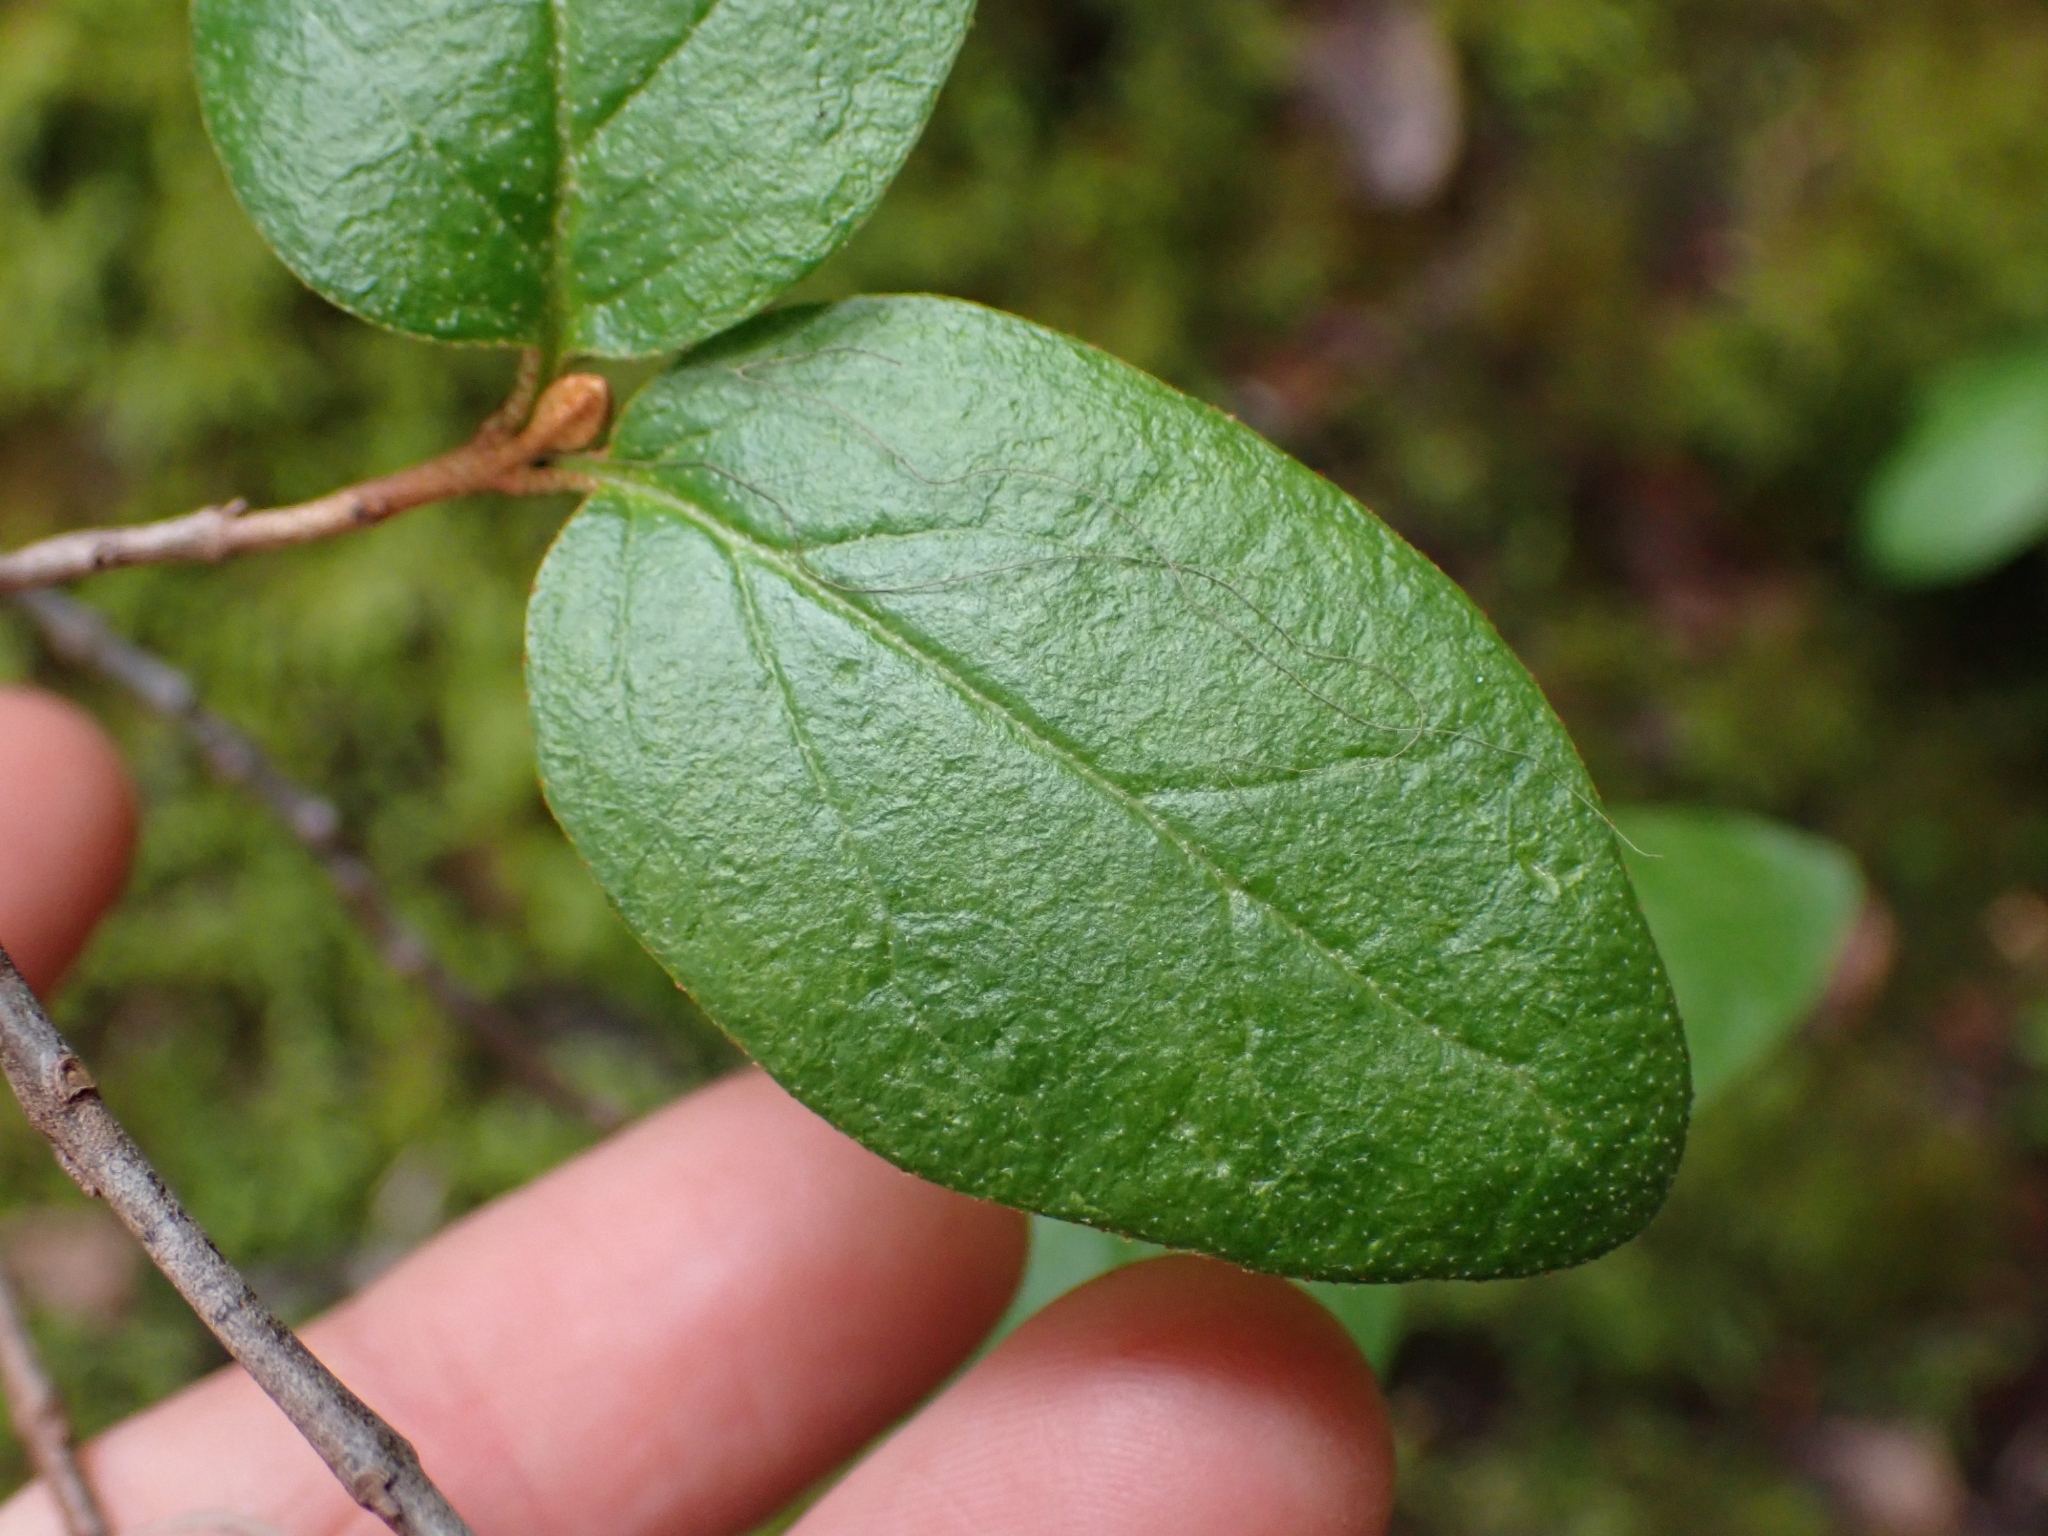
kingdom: Plantae
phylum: Tracheophyta
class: Magnoliopsida
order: Rosales
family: Elaeagnaceae
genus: Shepherdia
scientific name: Shepherdia canadensis
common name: Soapberry
